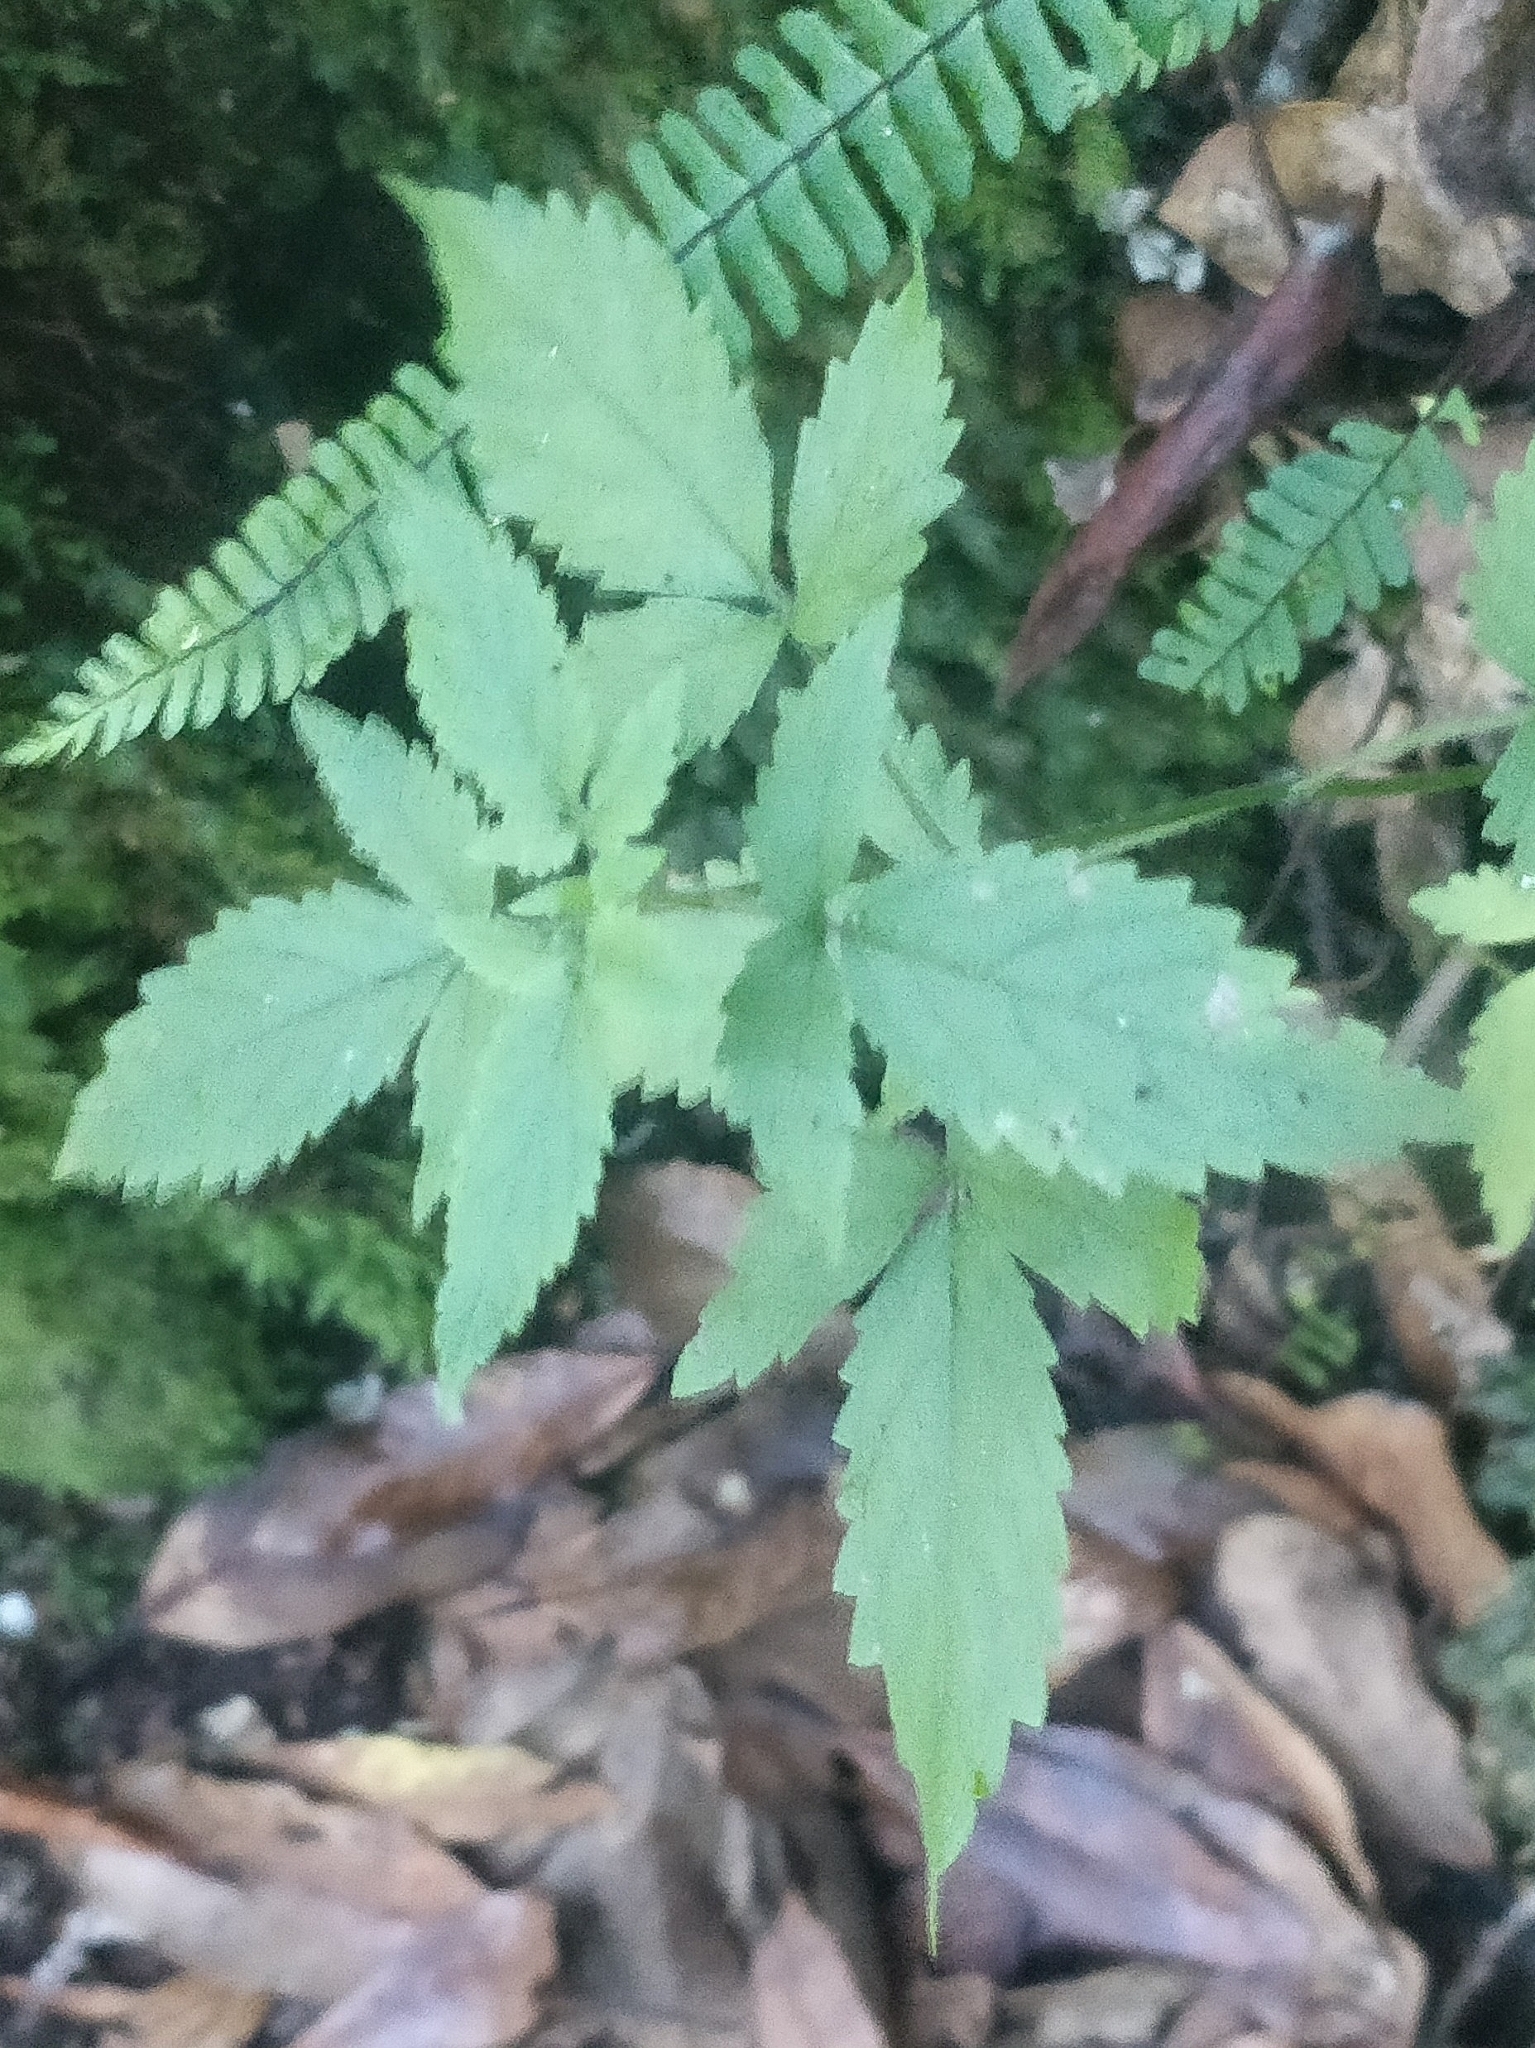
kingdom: Plantae
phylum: Tracheophyta
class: Magnoliopsida
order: Lamiales
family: Lamiaceae
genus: Cedronella
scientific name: Cedronella canariensis
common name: Canary islands balm
